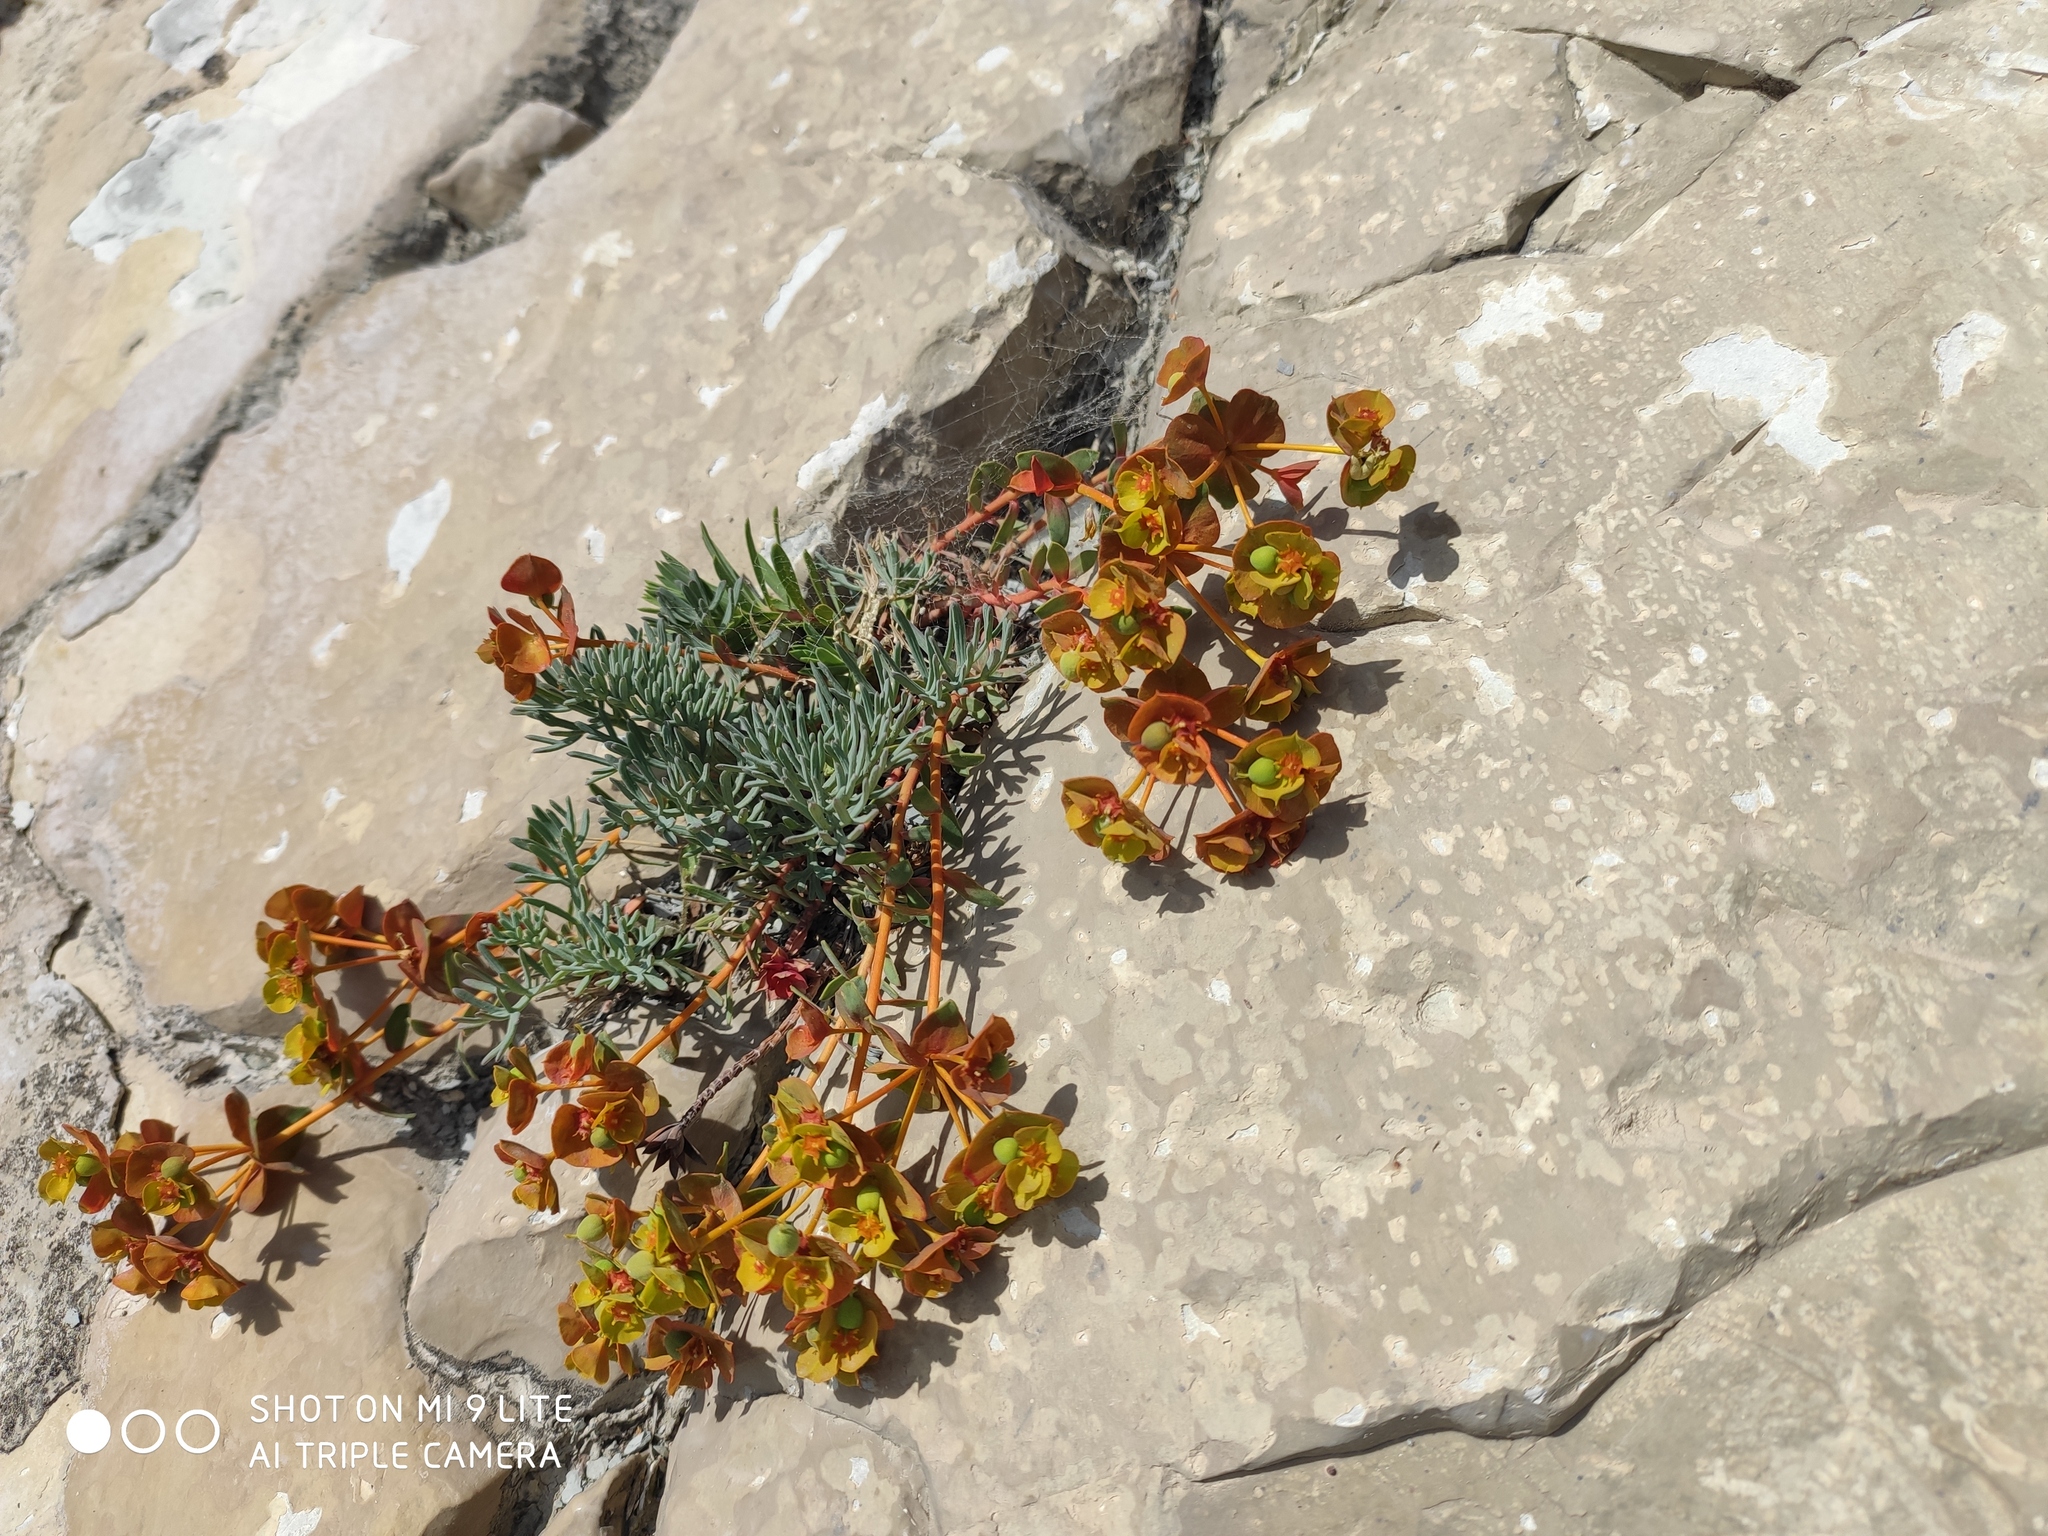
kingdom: Plantae
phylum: Tracheophyta
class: Magnoliopsida
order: Malpighiales
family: Euphorbiaceae
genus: Euphorbia
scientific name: Euphorbia petrophila
